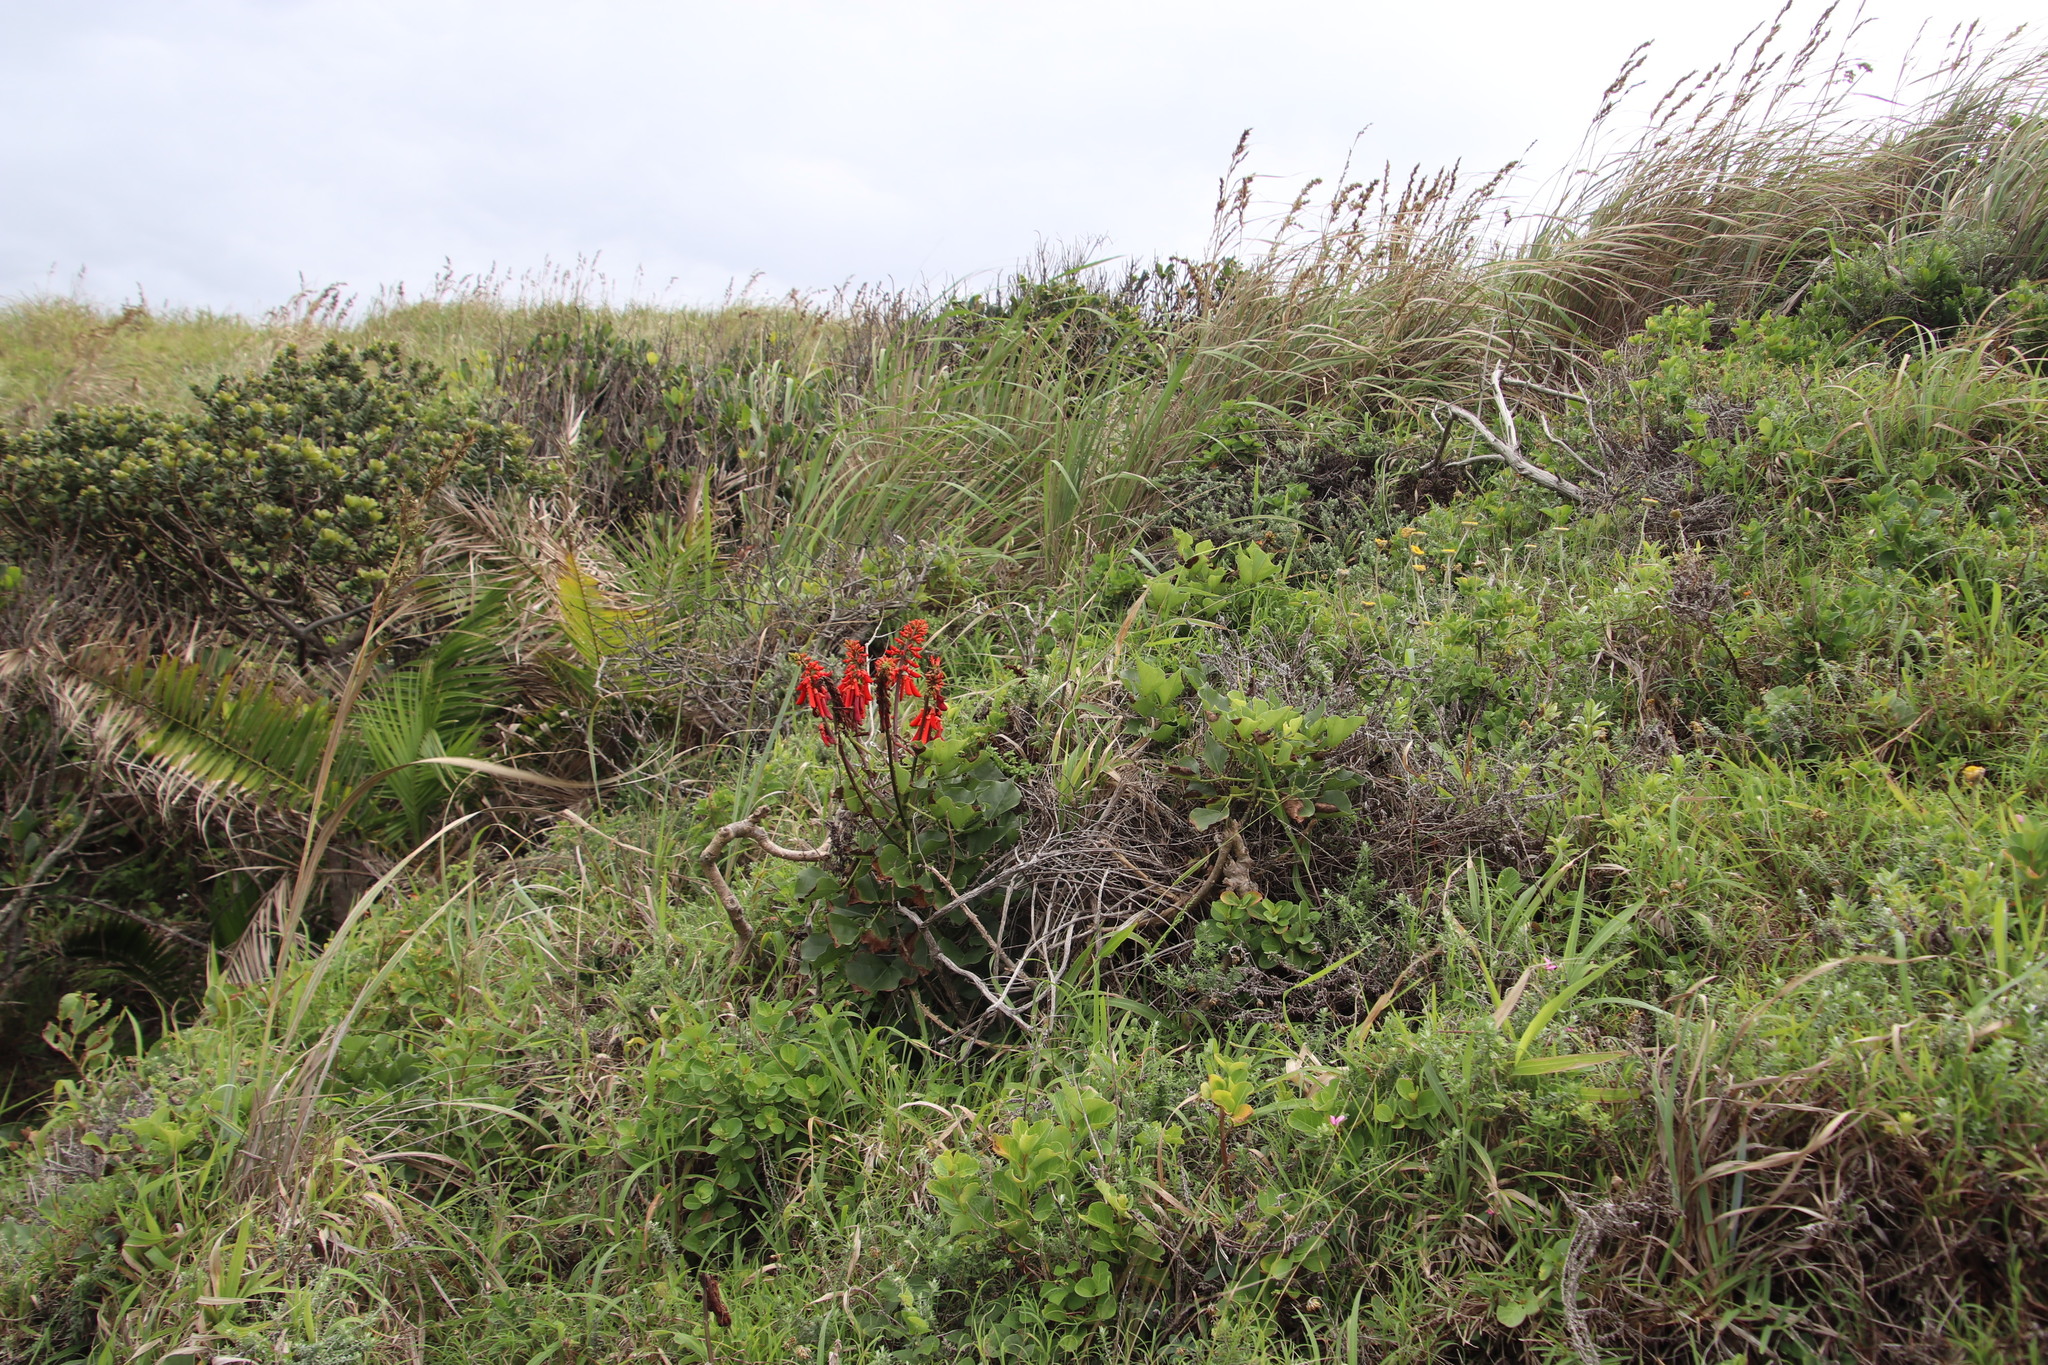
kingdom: Plantae
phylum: Tracheophyta
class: Magnoliopsida
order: Fabales
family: Fabaceae
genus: Erythrina
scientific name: Erythrina humeana
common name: Dwarf coral tree
